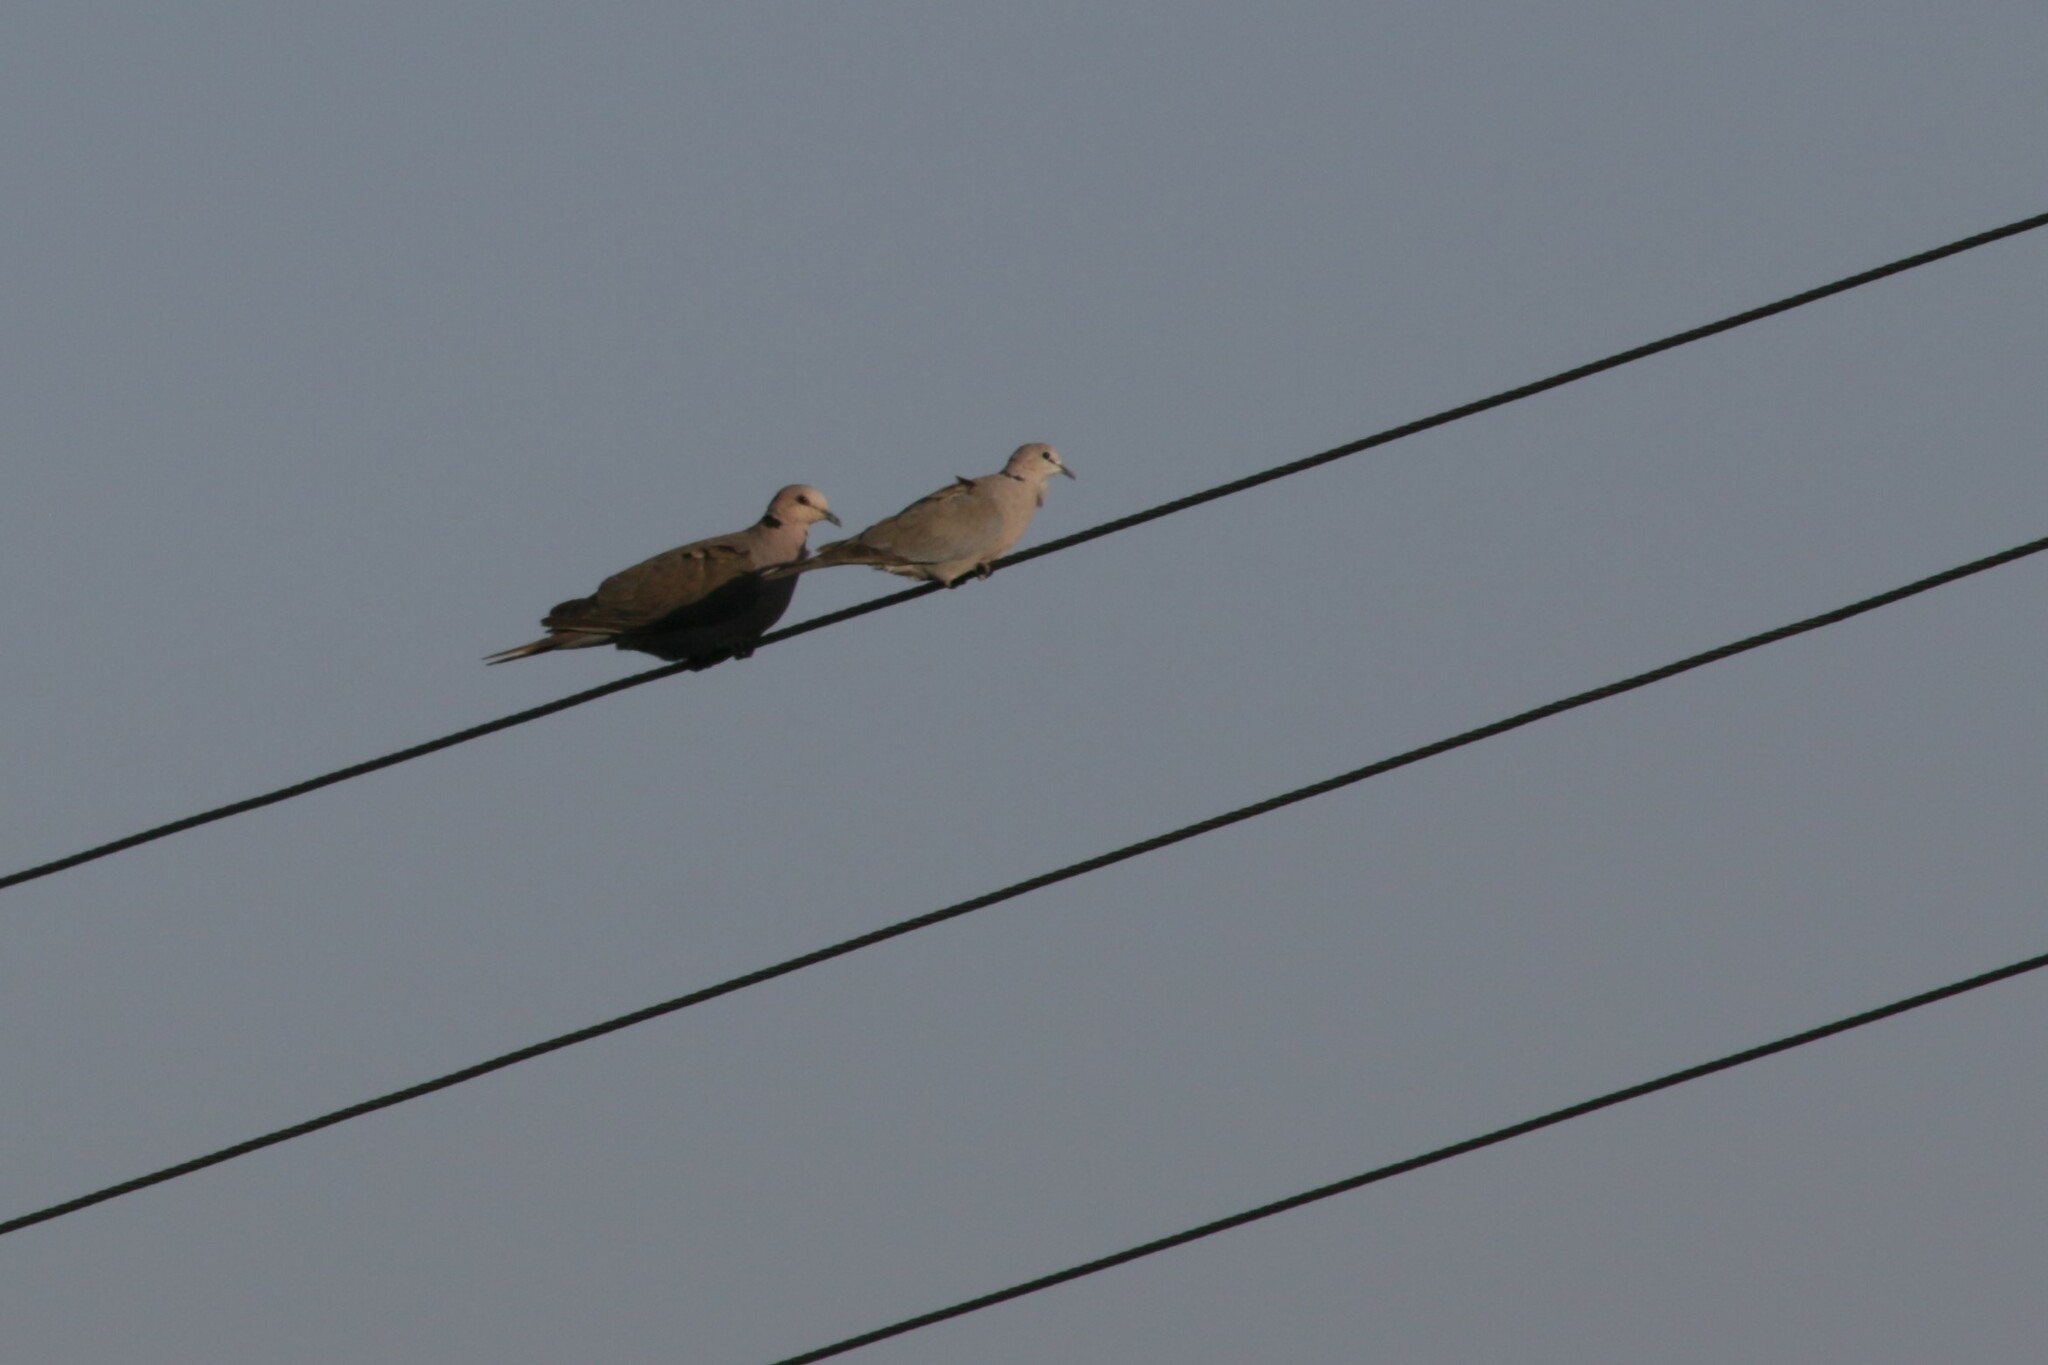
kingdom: Animalia
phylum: Chordata
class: Aves
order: Columbiformes
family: Columbidae
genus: Streptopelia
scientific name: Streptopelia semitorquata
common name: Red-eyed dove
